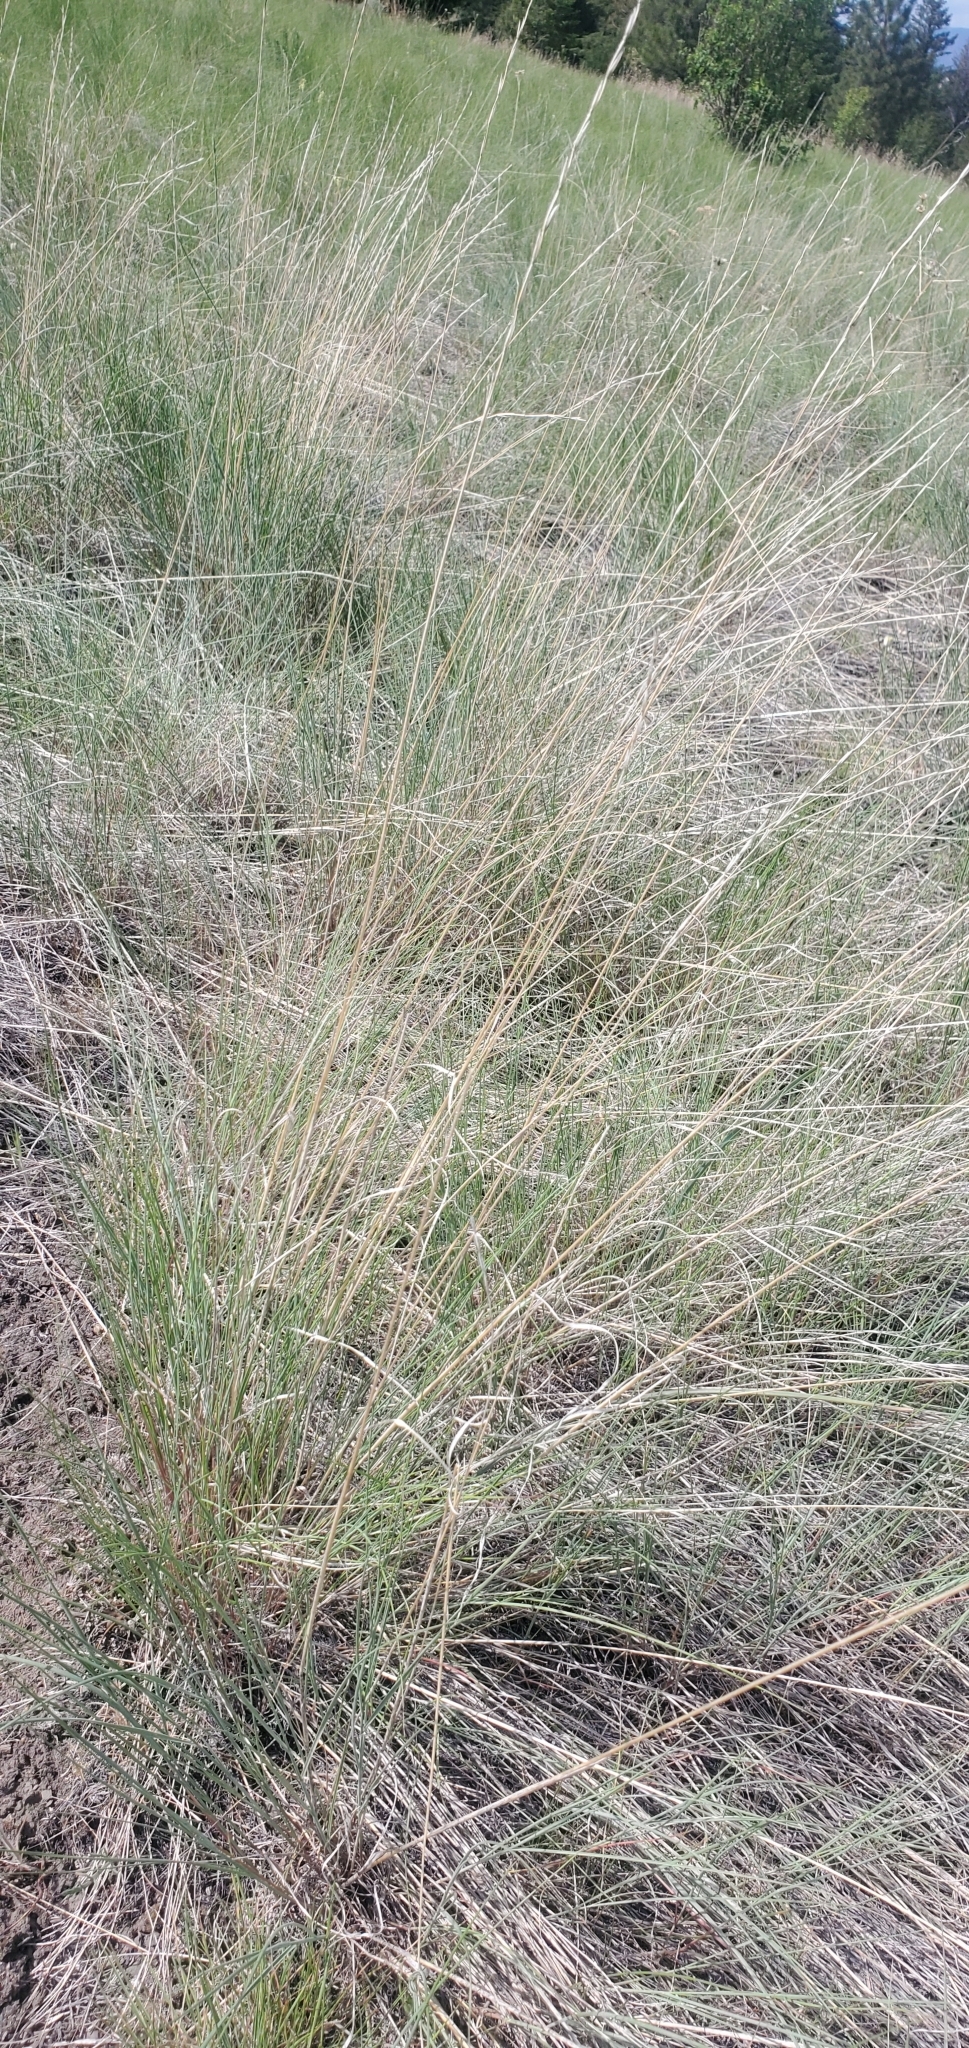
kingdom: Plantae
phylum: Tracheophyta
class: Liliopsida
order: Poales
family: Poaceae
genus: Pseudoroegneria
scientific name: Pseudoroegneria spicata
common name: Bluebunch wheatgrass
